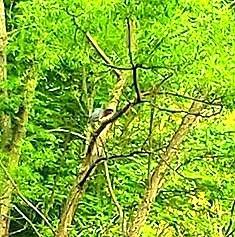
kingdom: Animalia
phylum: Chordata
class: Aves
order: Pelecaniformes
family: Ardeidae
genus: Butorides
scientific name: Butorides virescens
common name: Green heron
